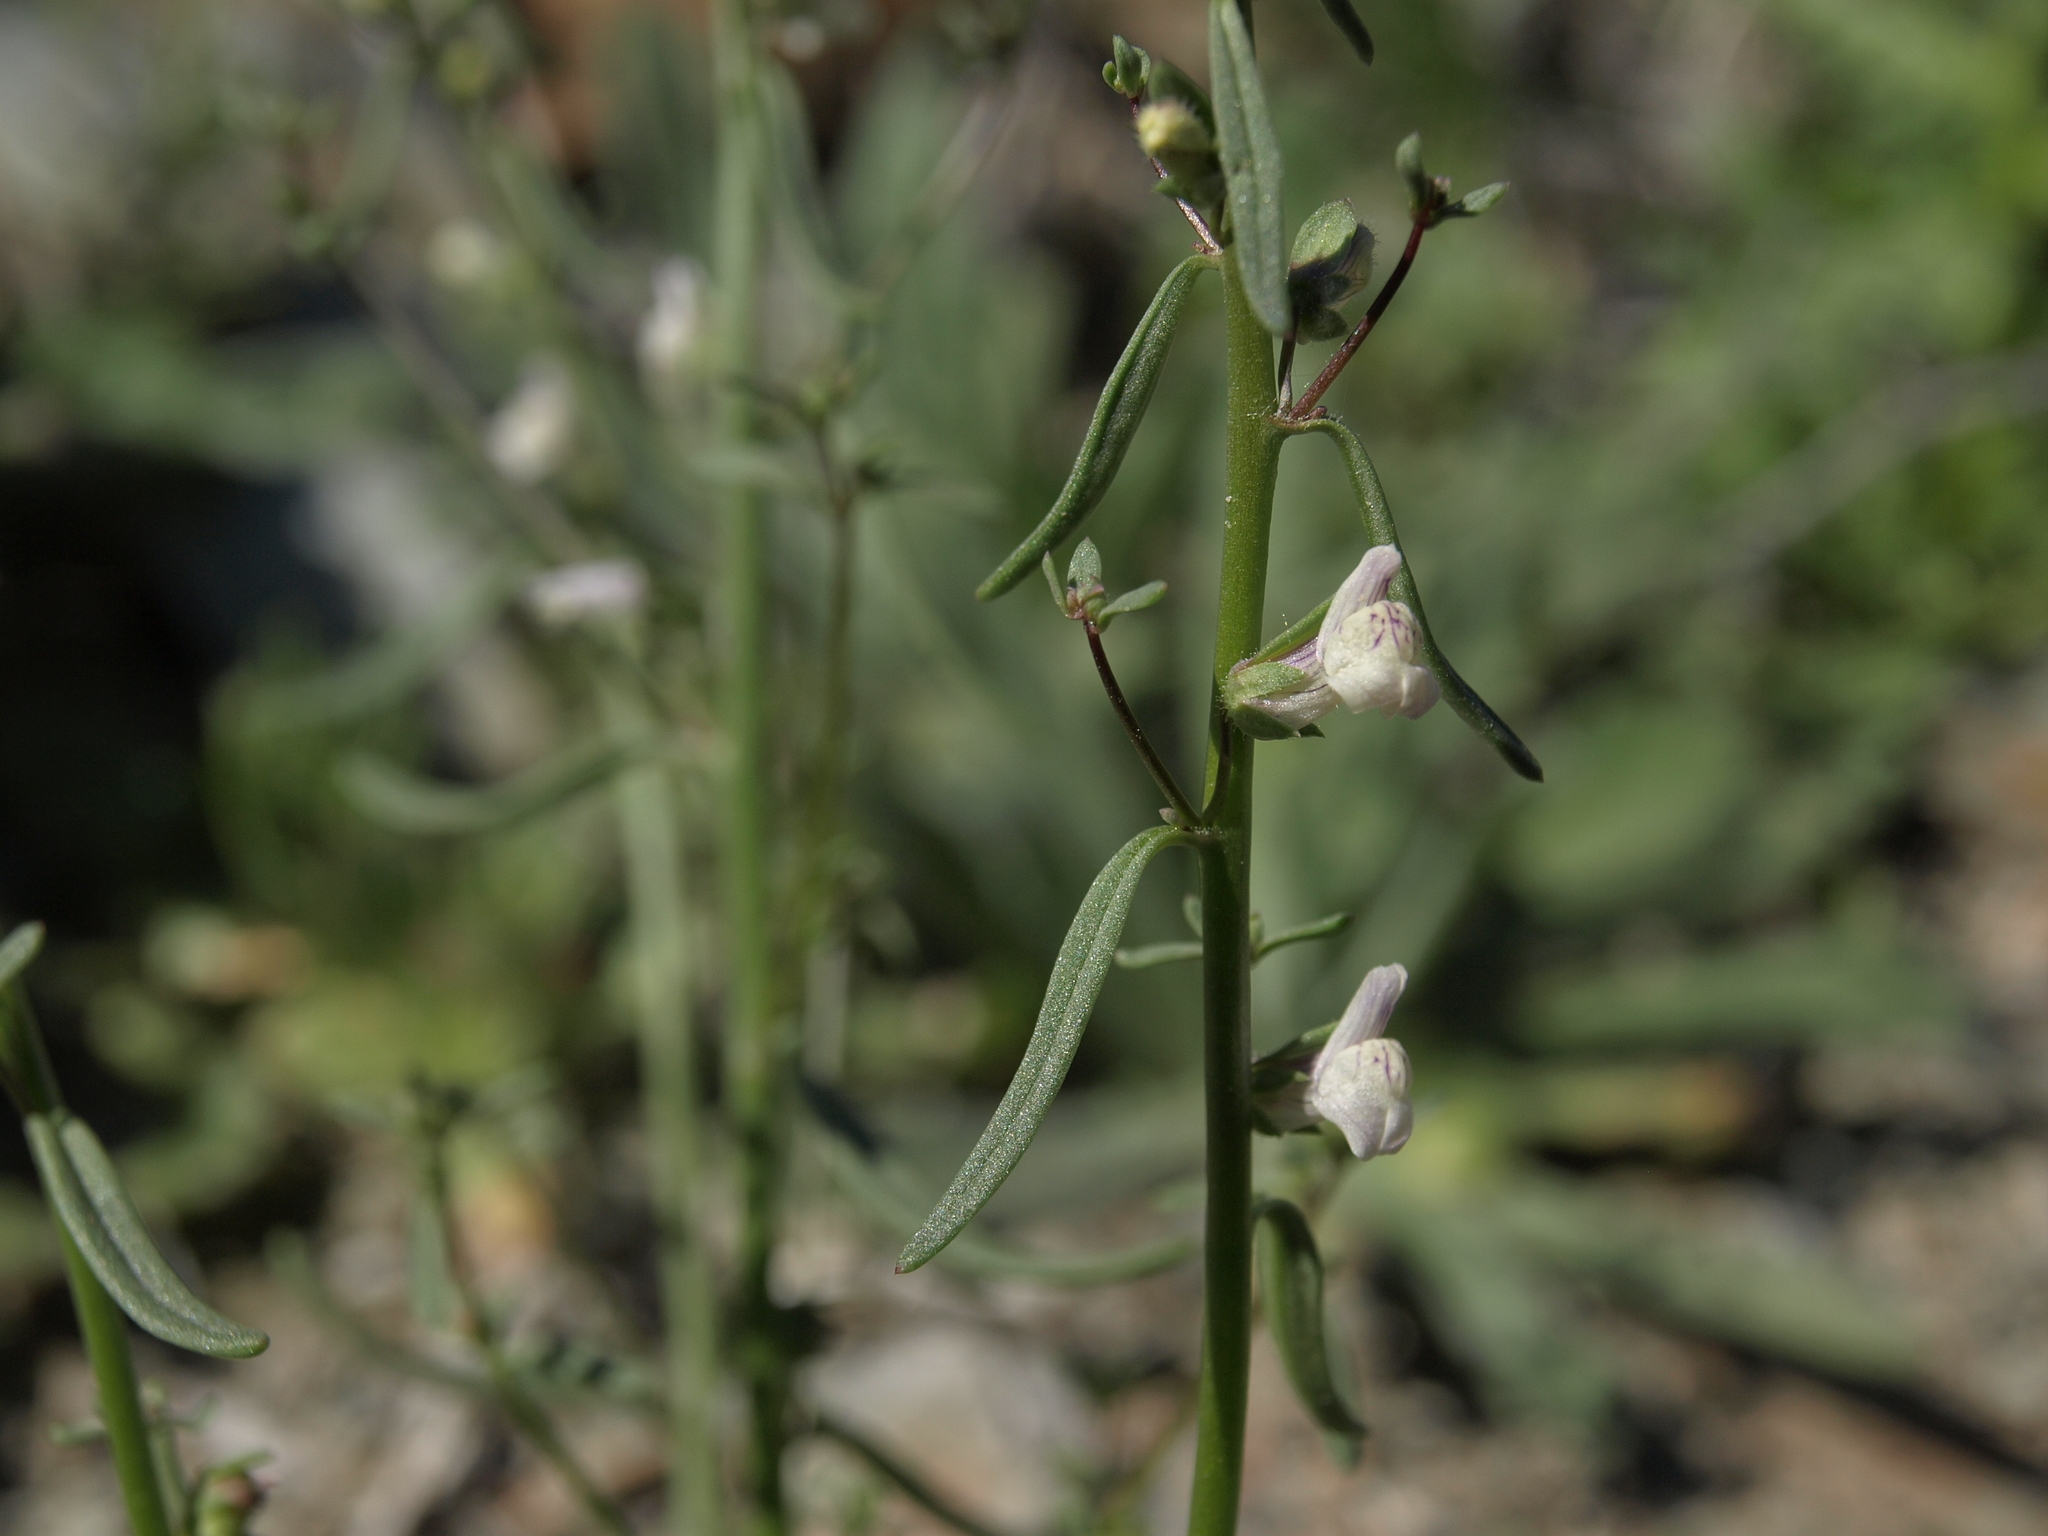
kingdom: Plantae
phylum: Tracheophyta
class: Magnoliopsida
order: Lamiales
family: Plantaginaceae
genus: Sairocarpus
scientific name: Sairocarpus kingii
